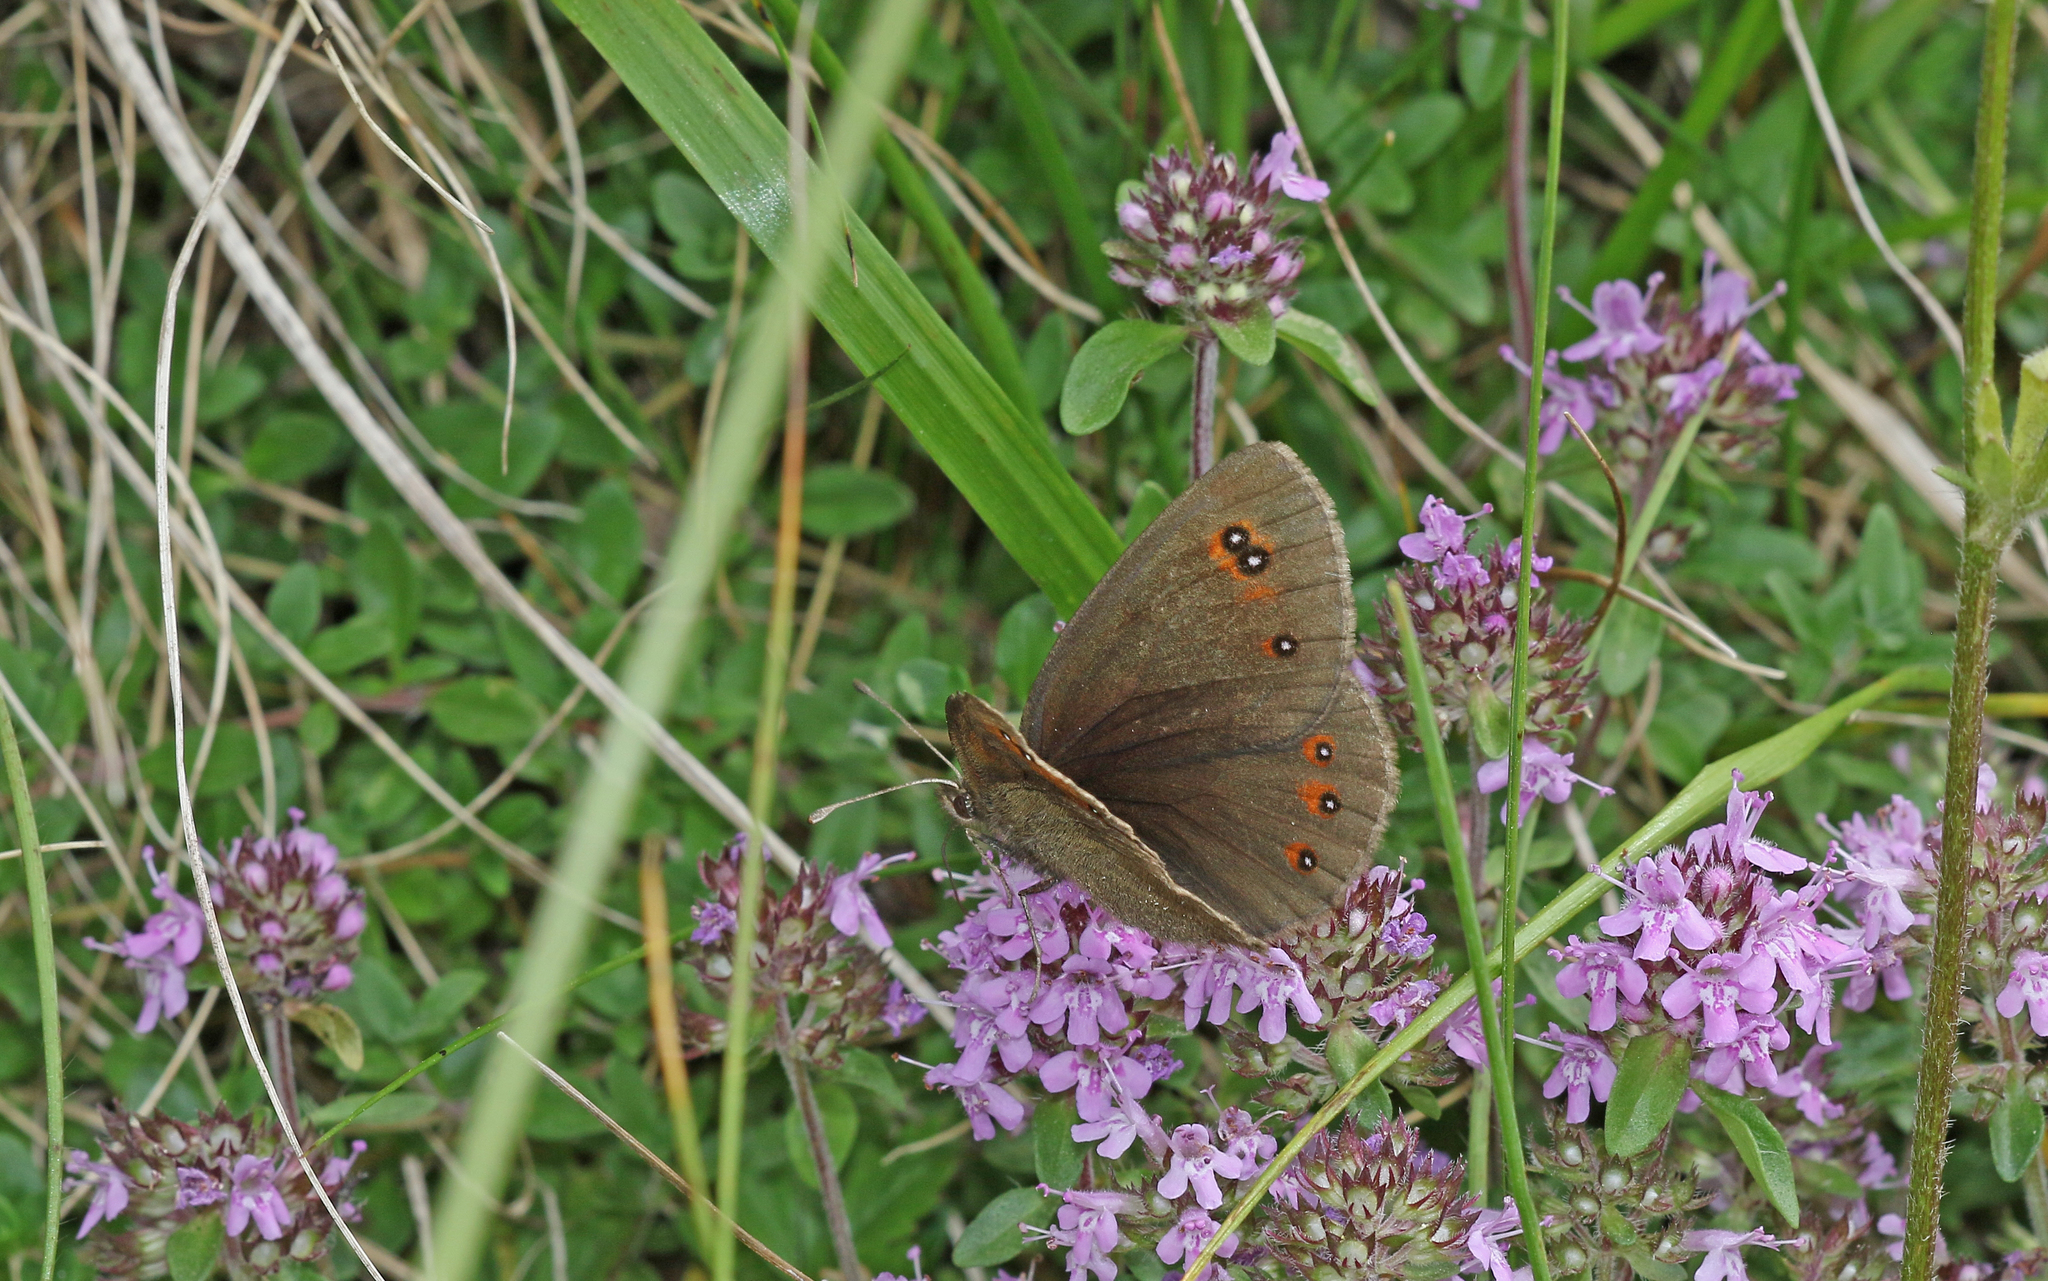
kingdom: Animalia
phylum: Arthropoda
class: Insecta
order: Lepidoptera
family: Nymphalidae
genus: Erebia
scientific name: Erebia meolans
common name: Piedmont ringlet
